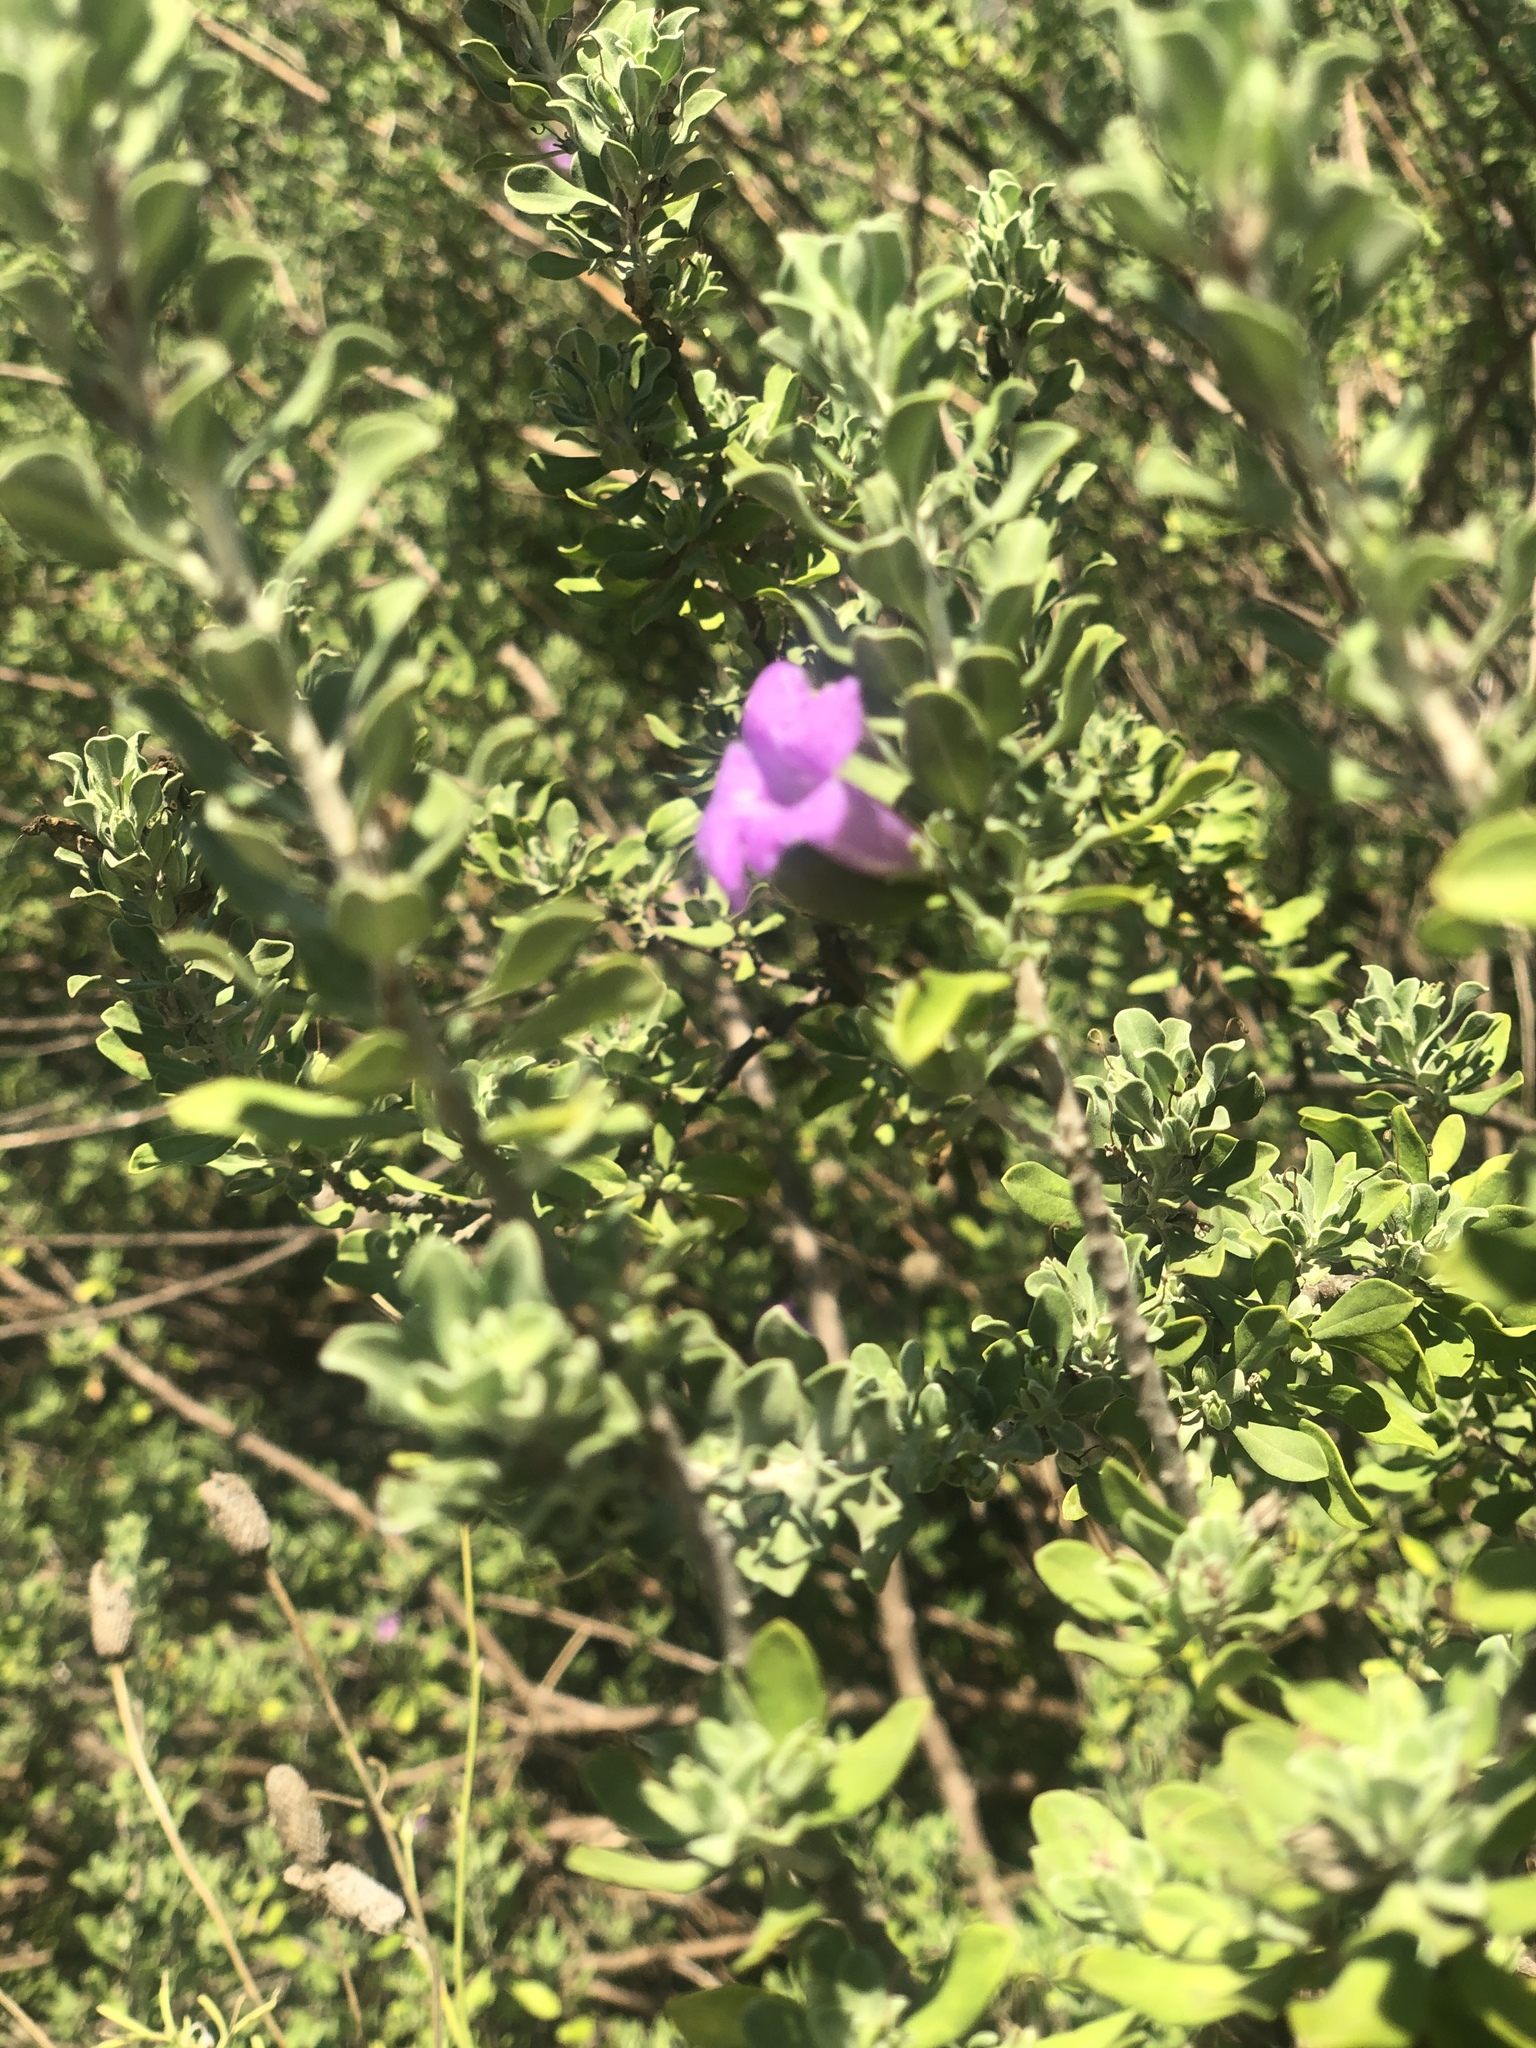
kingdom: Plantae
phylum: Tracheophyta
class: Magnoliopsida
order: Lamiales
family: Scrophulariaceae
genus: Leucophyllum
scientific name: Leucophyllum frutescens
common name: Texas silverleaf
